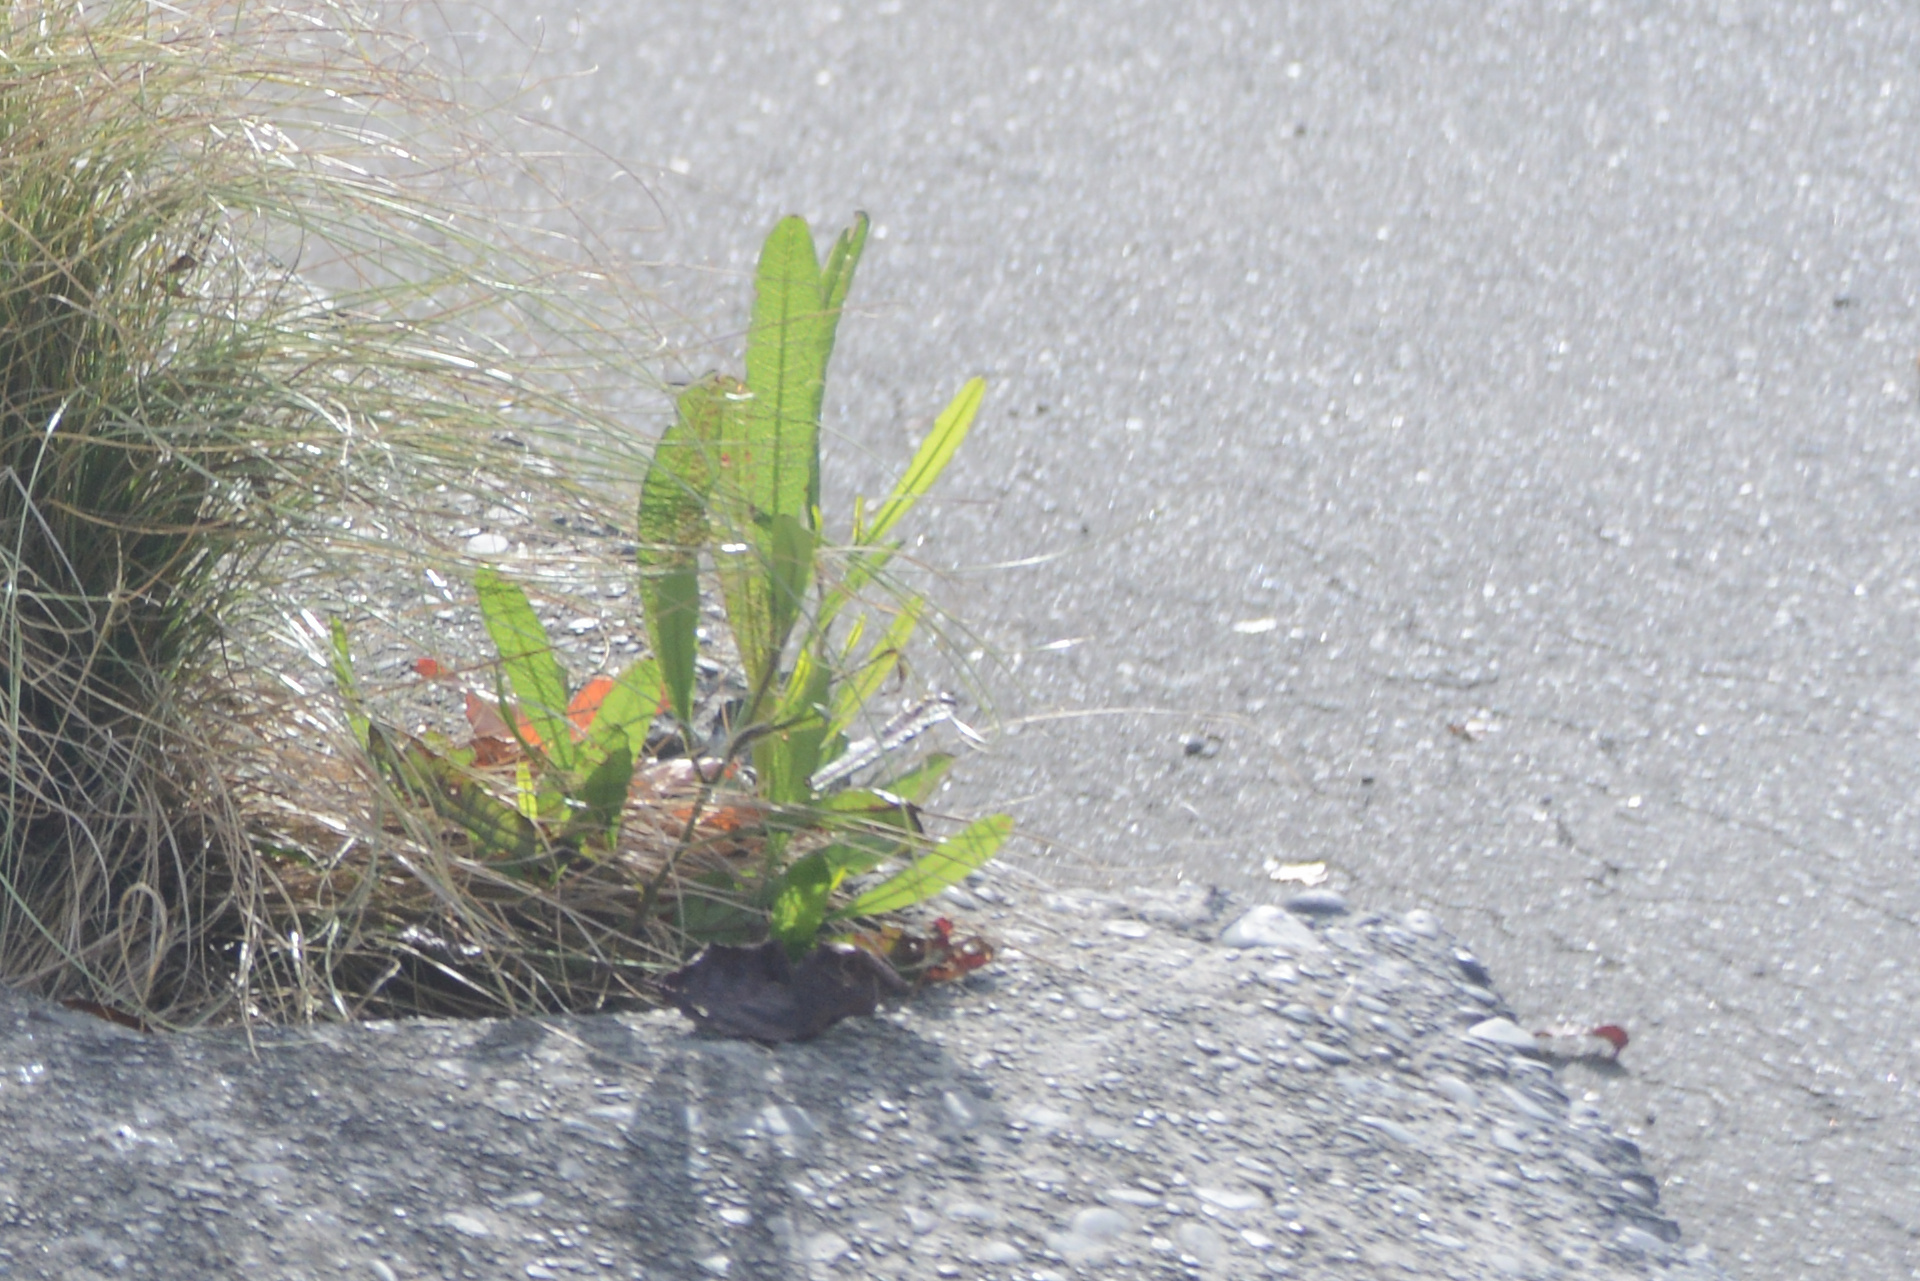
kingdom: Plantae
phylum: Tracheophyta
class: Magnoliopsida
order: Sapindales
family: Sapindaceae
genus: Dodonaea
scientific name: Dodonaea viscosa
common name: Hopbush
